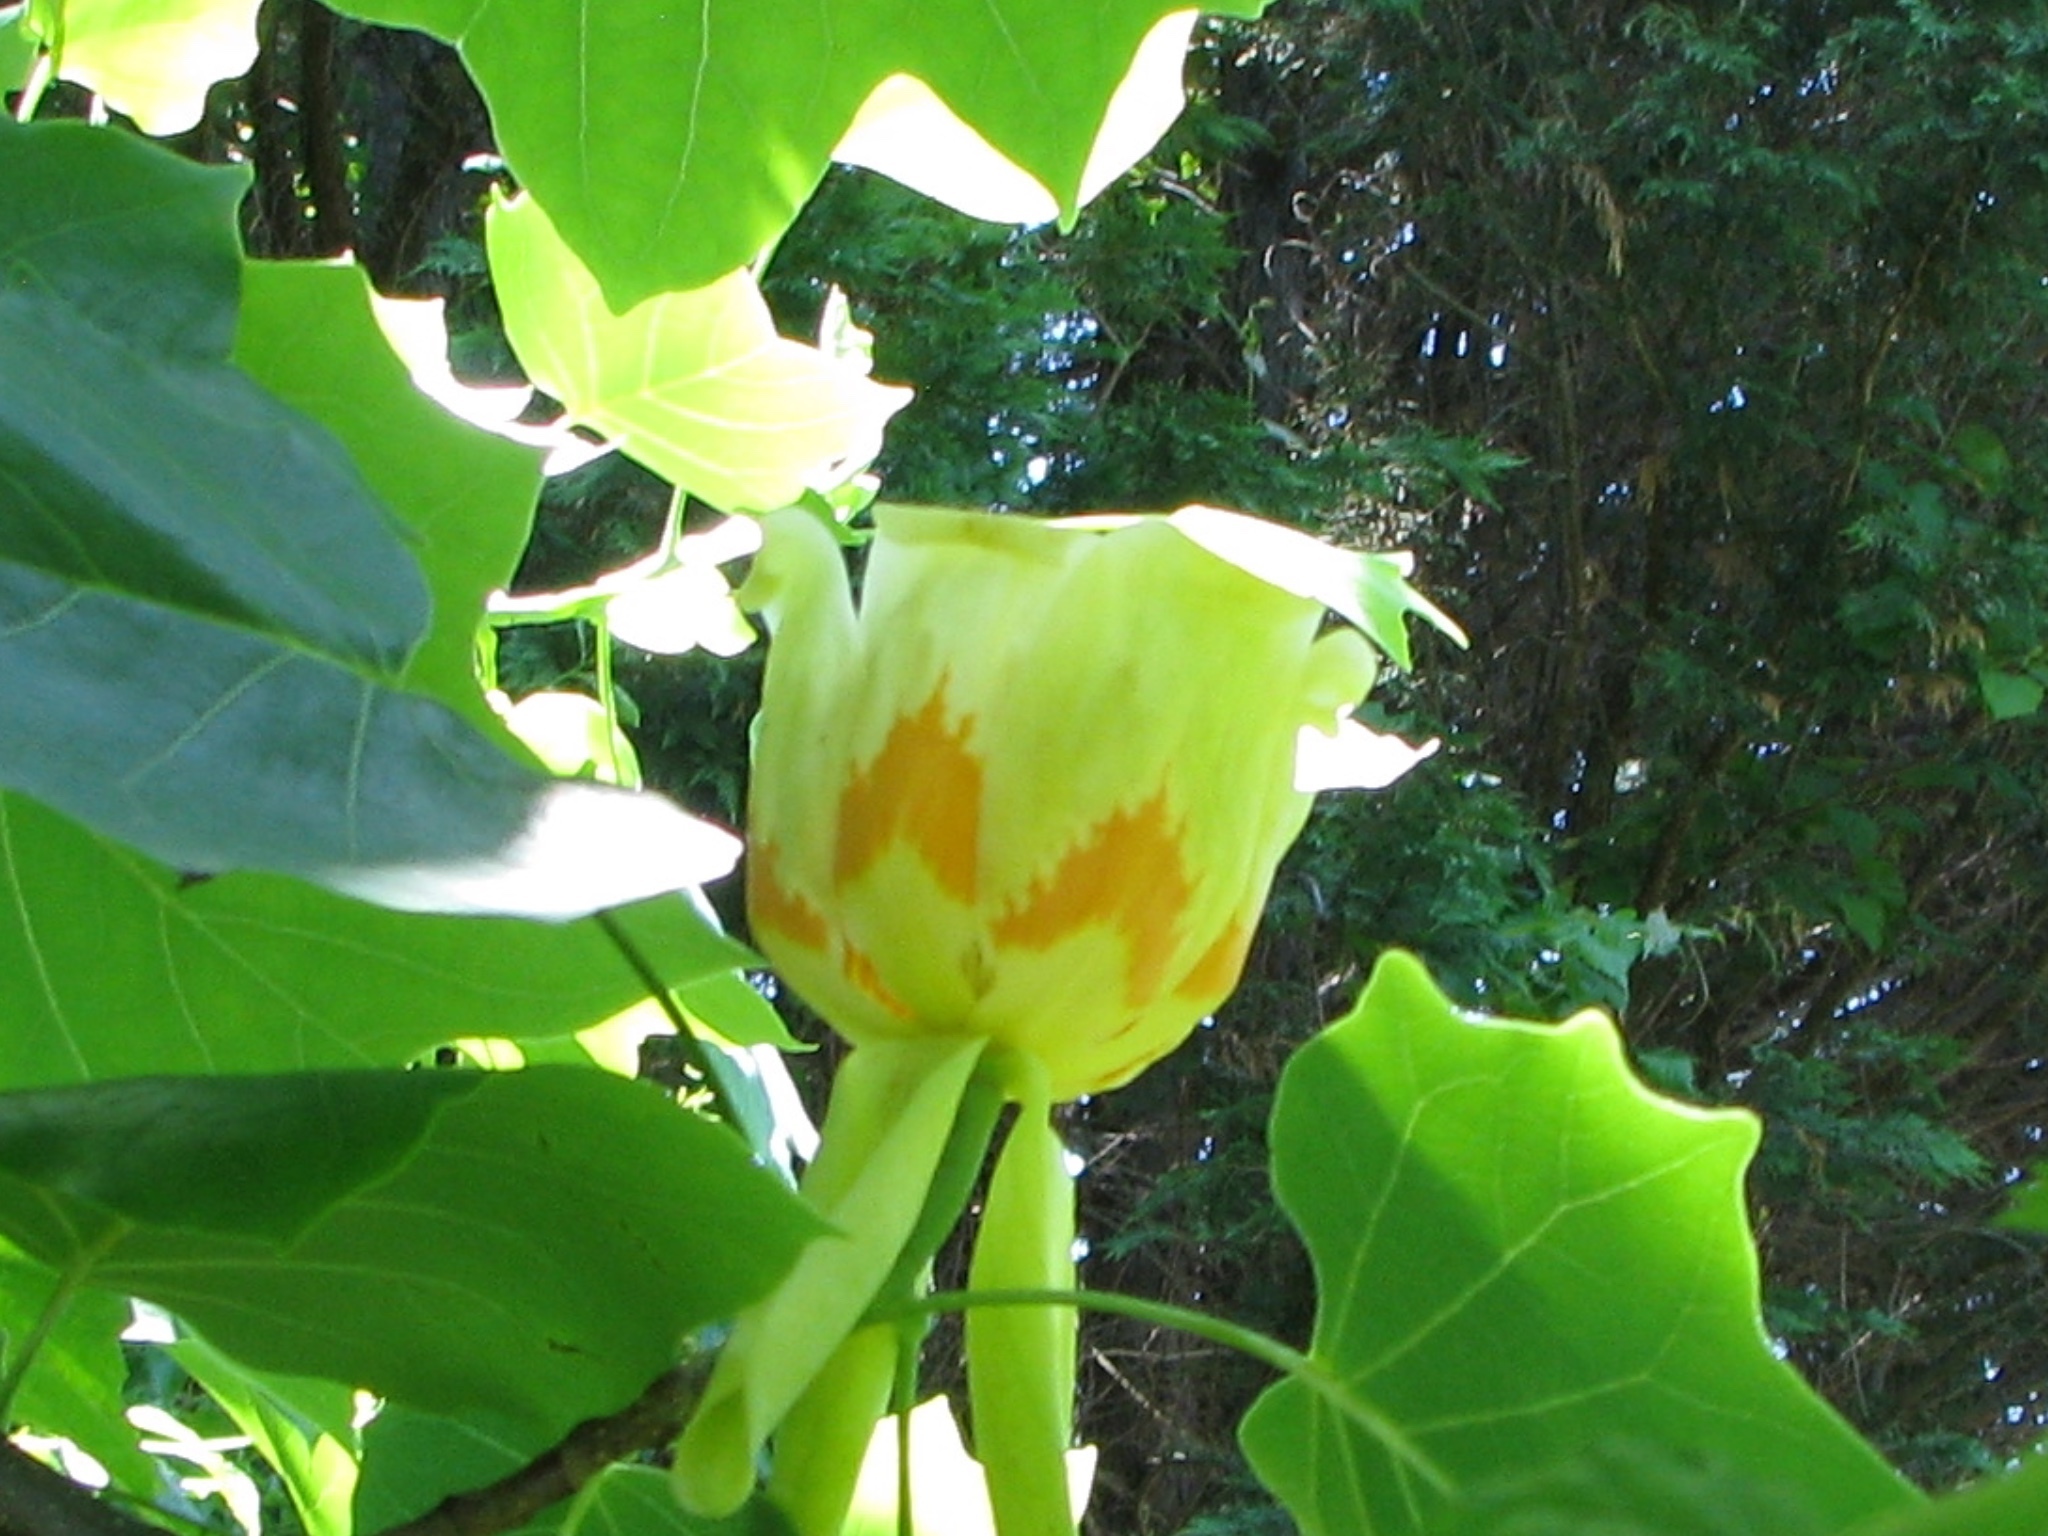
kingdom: Plantae
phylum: Tracheophyta
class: Magnoliopsida
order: Magnoliales
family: Magnoliaceae
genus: Liriodendron
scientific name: Liriodendron tulipifera
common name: Tulip tree
